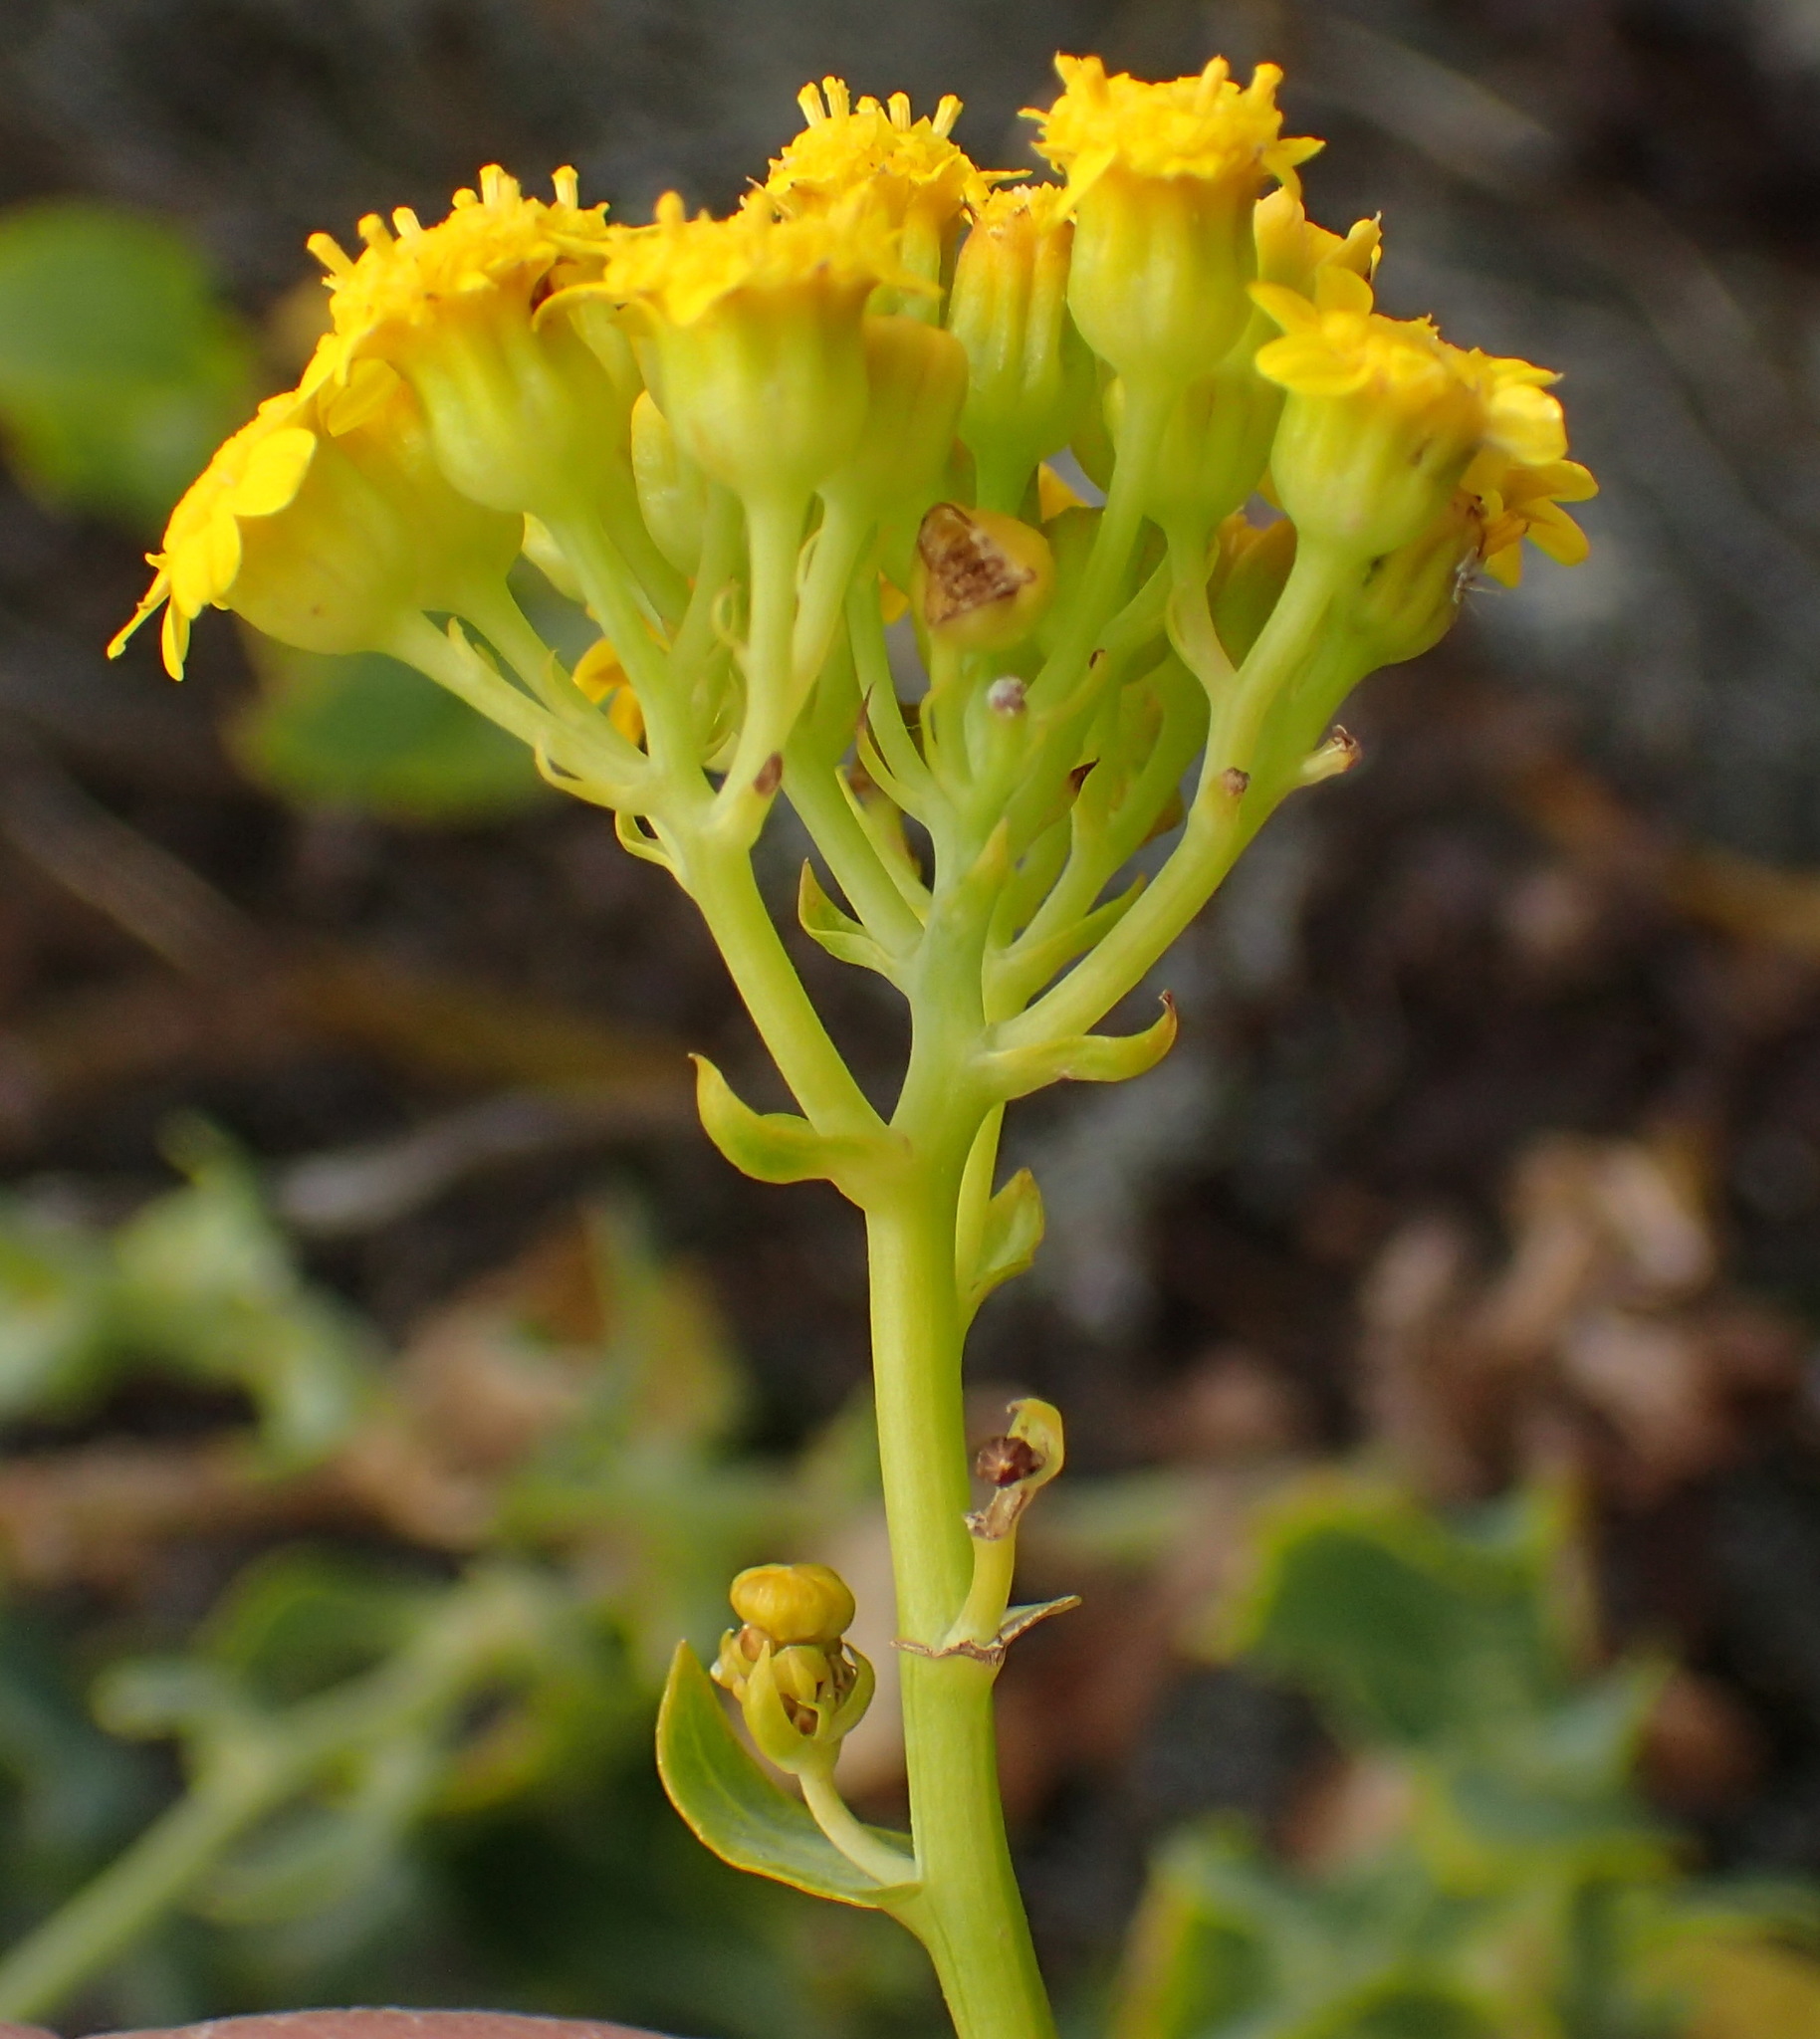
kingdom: Plantae
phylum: Tracheophyta
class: Magnoliopsida
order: Asterales
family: Asteraceae
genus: Othonna
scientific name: Othonna parviflora
